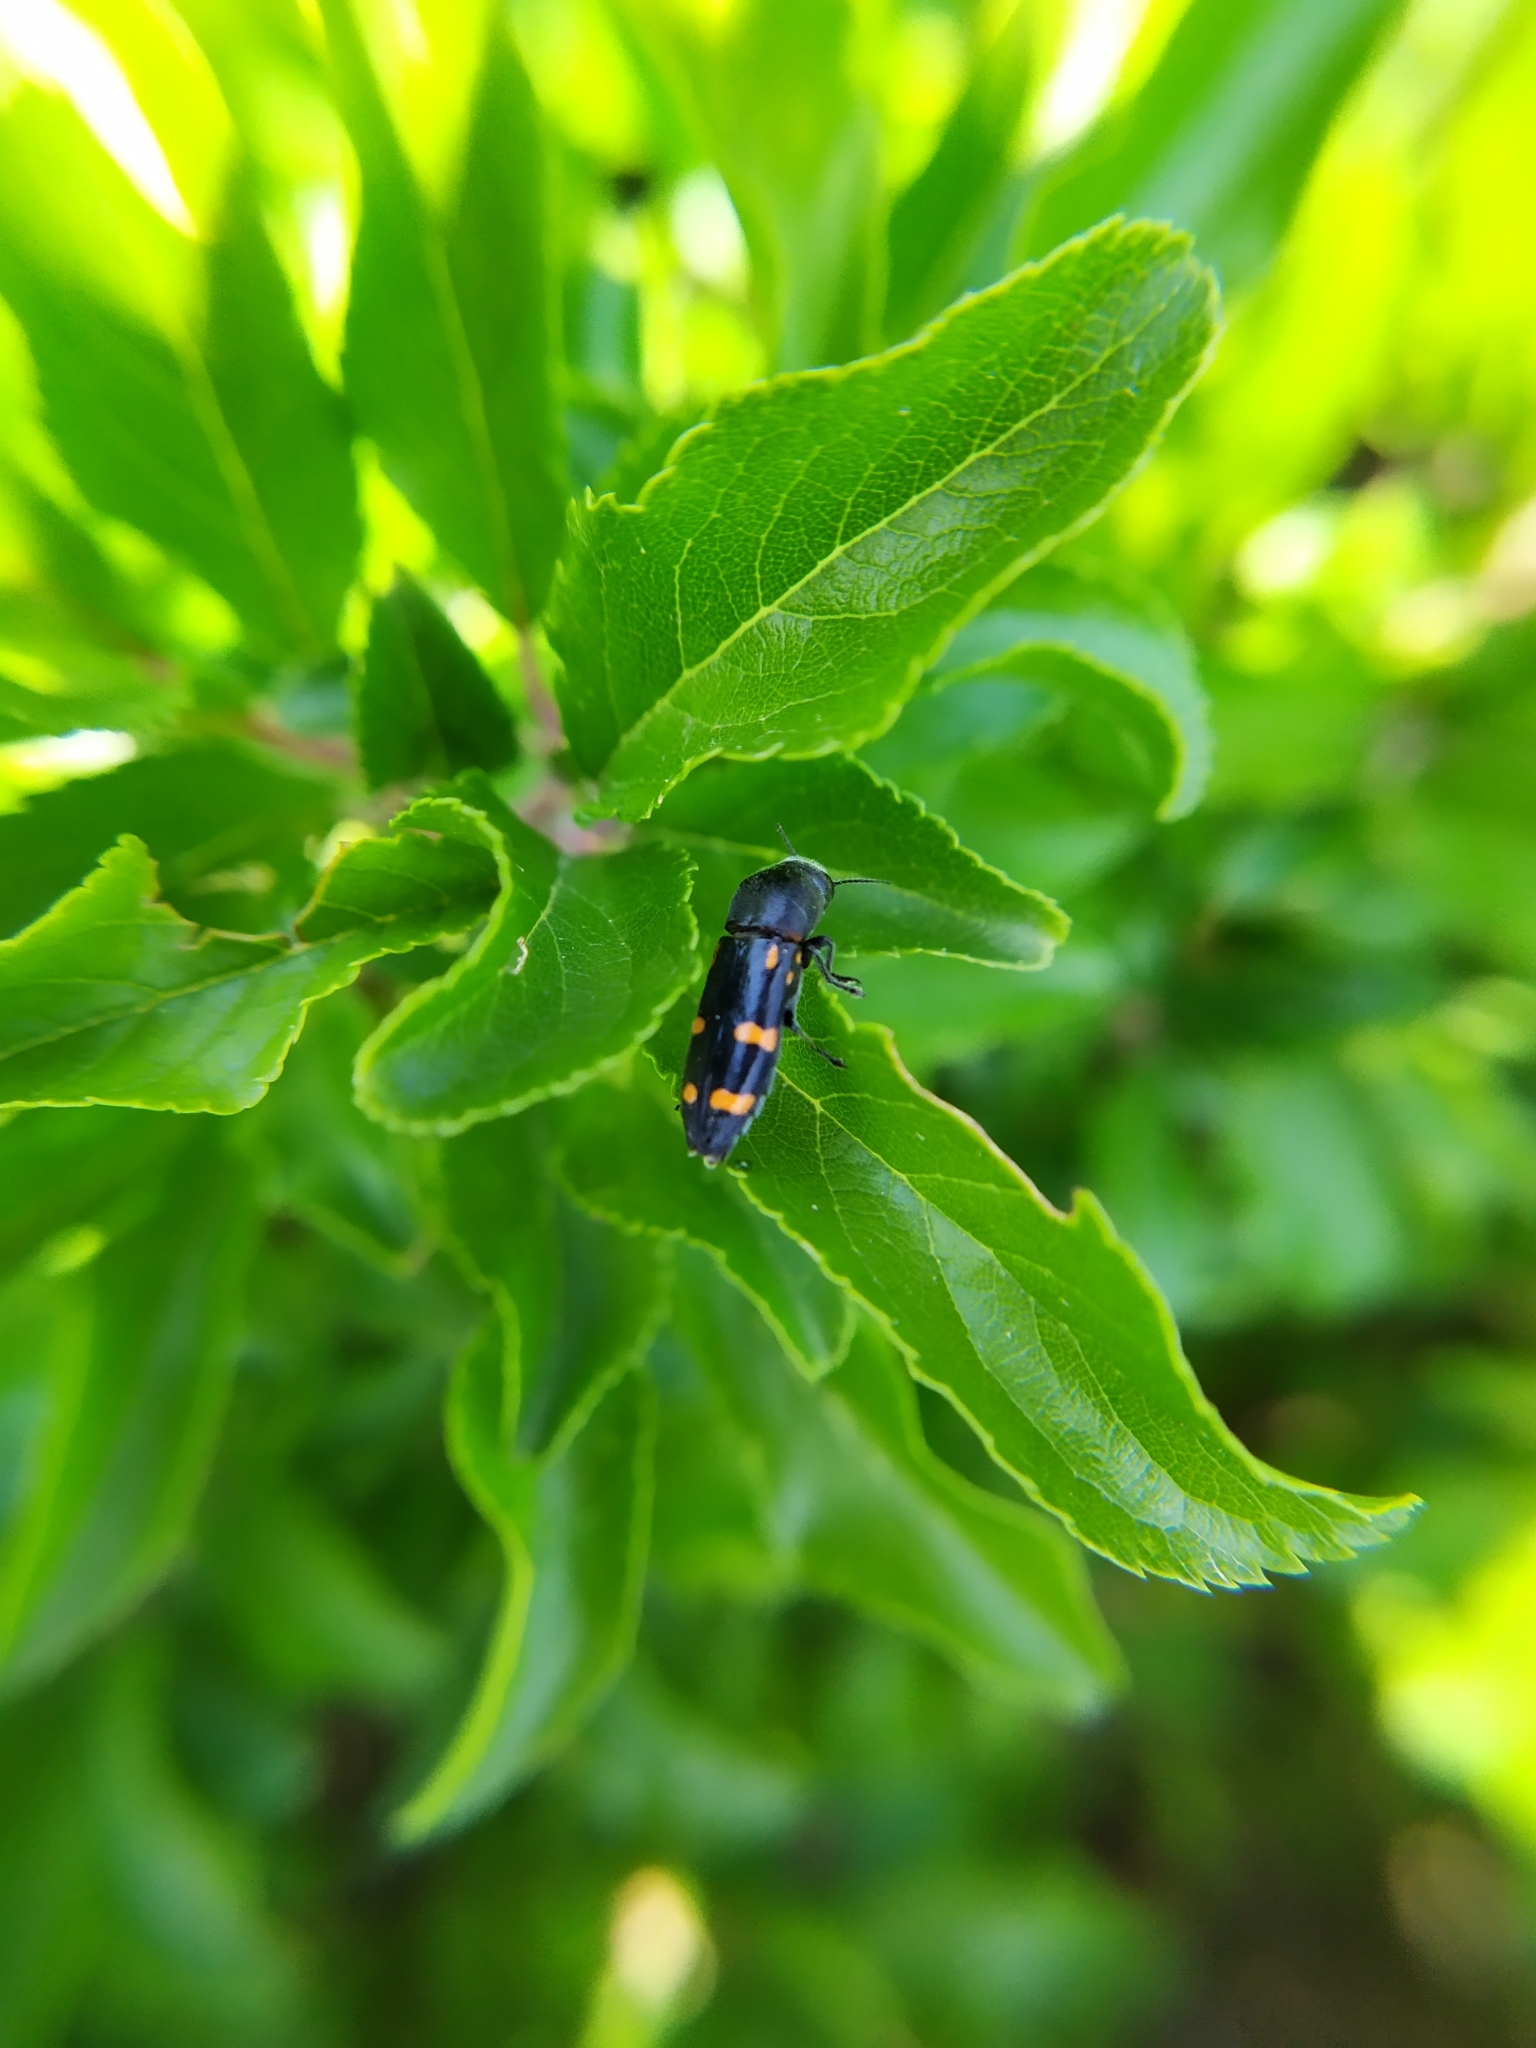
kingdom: Animalia
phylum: Arthropoda
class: Insecta
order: Coleoptera
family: Buprestidae
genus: Ptosima
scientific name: Ptosima undecimmaculata
